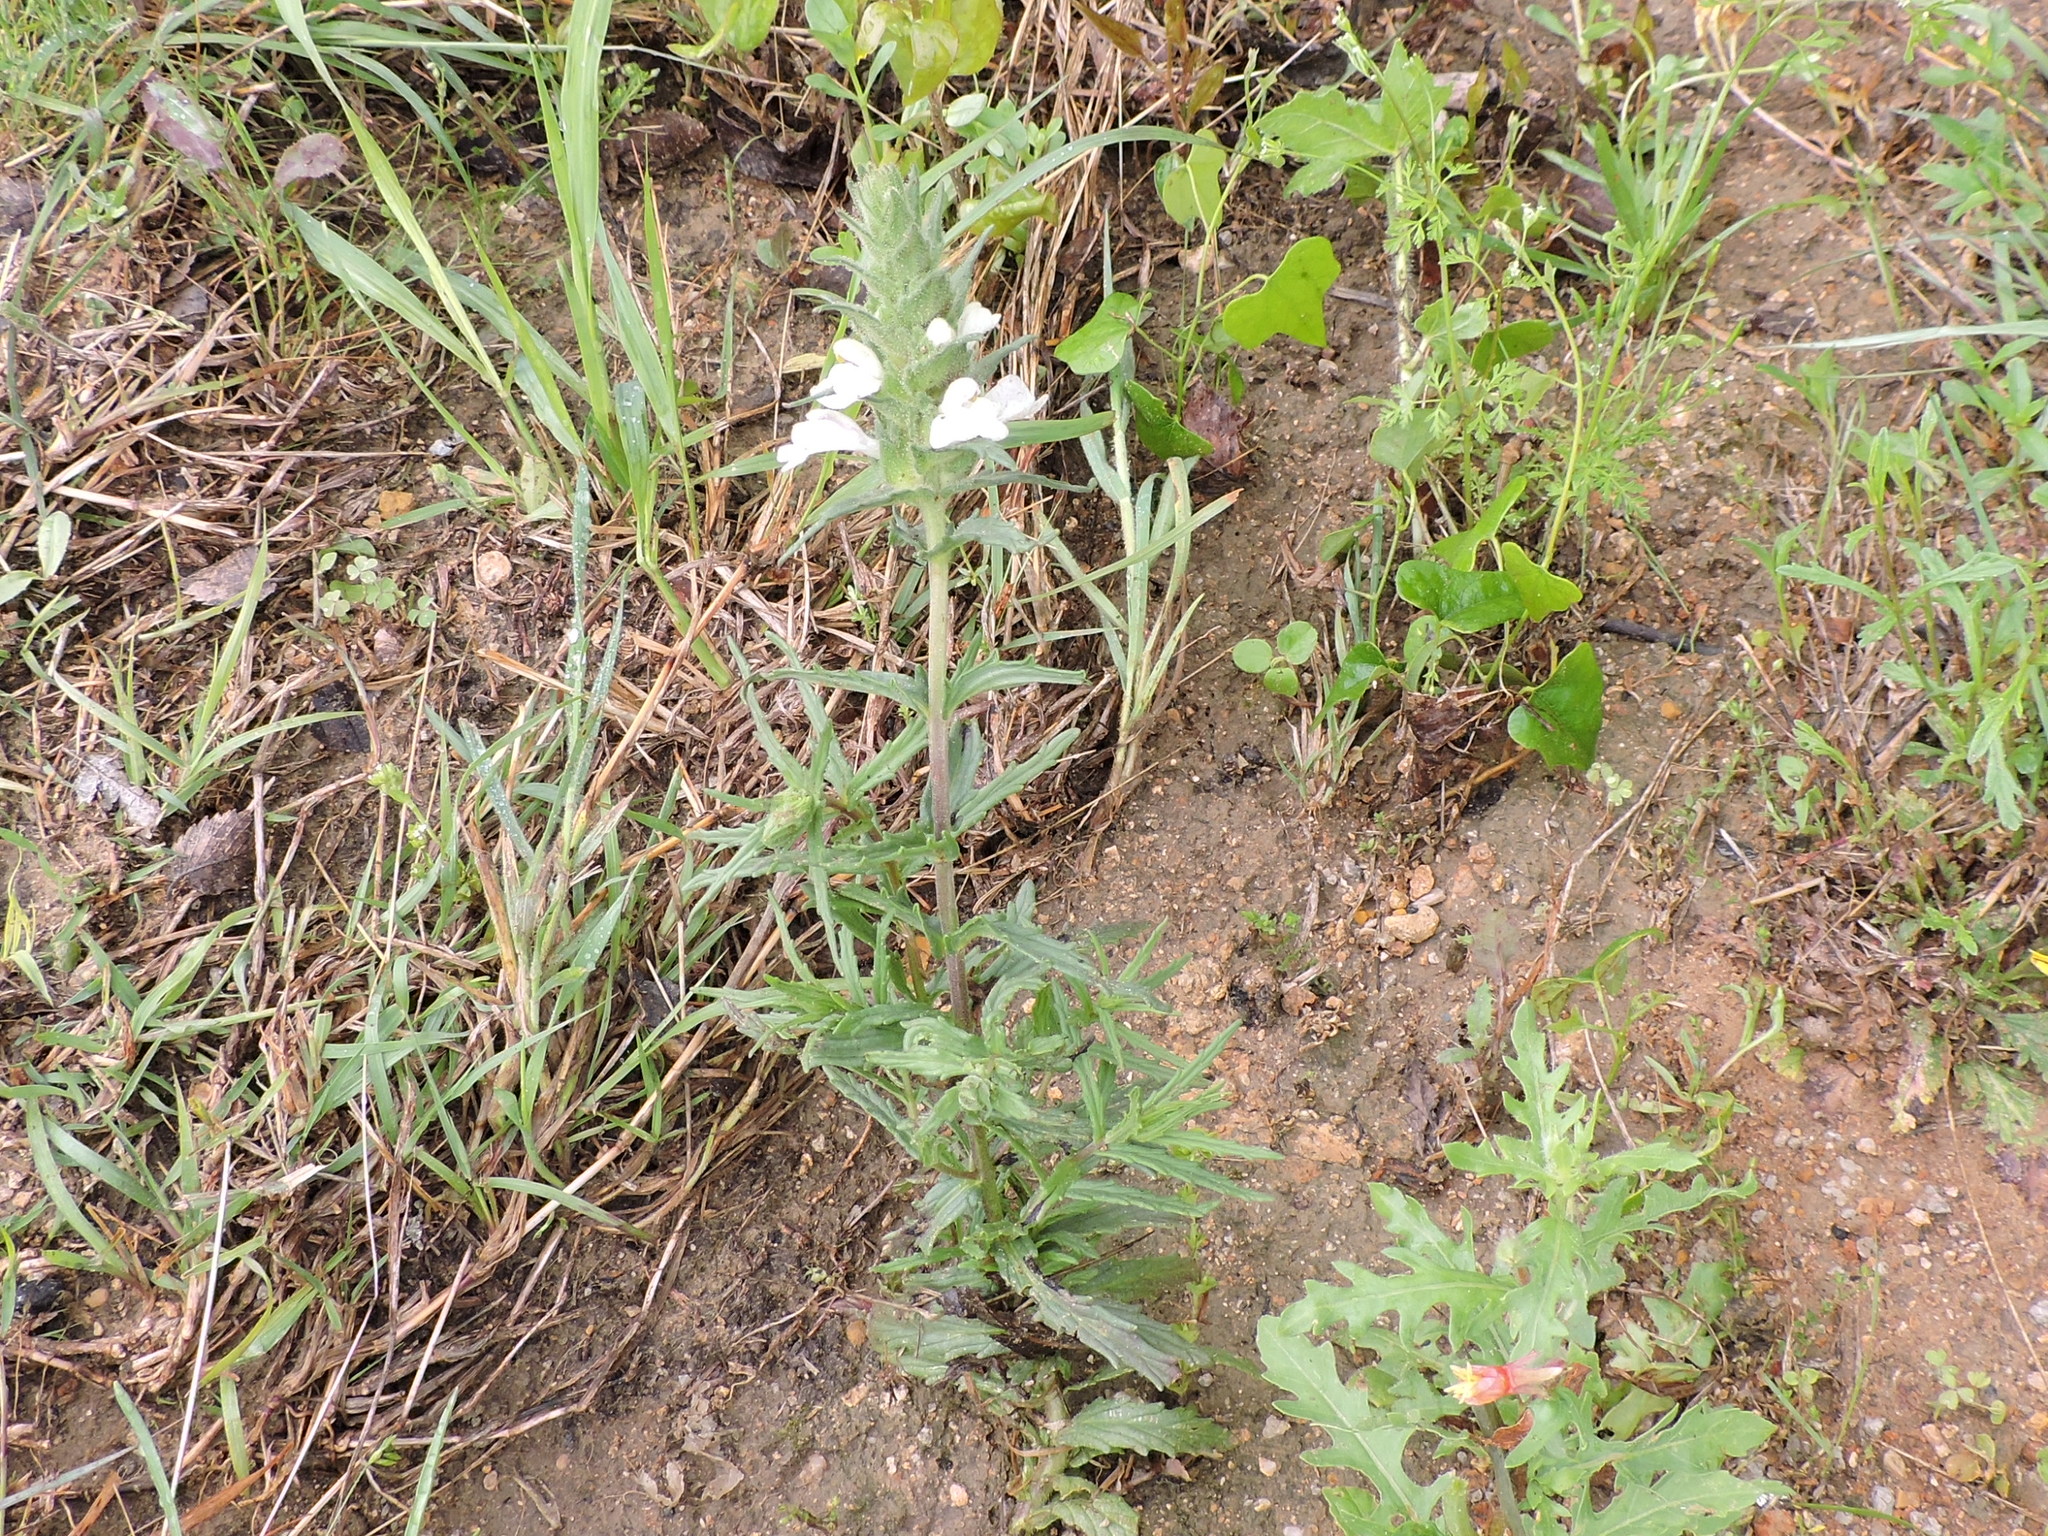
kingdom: Plantae
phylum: Tracheophyta
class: Magnoliopsida
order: Lamiales
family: Orobanchaceae
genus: Bellardia
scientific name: Bellardia trixago
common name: Mediterranean lineseed
